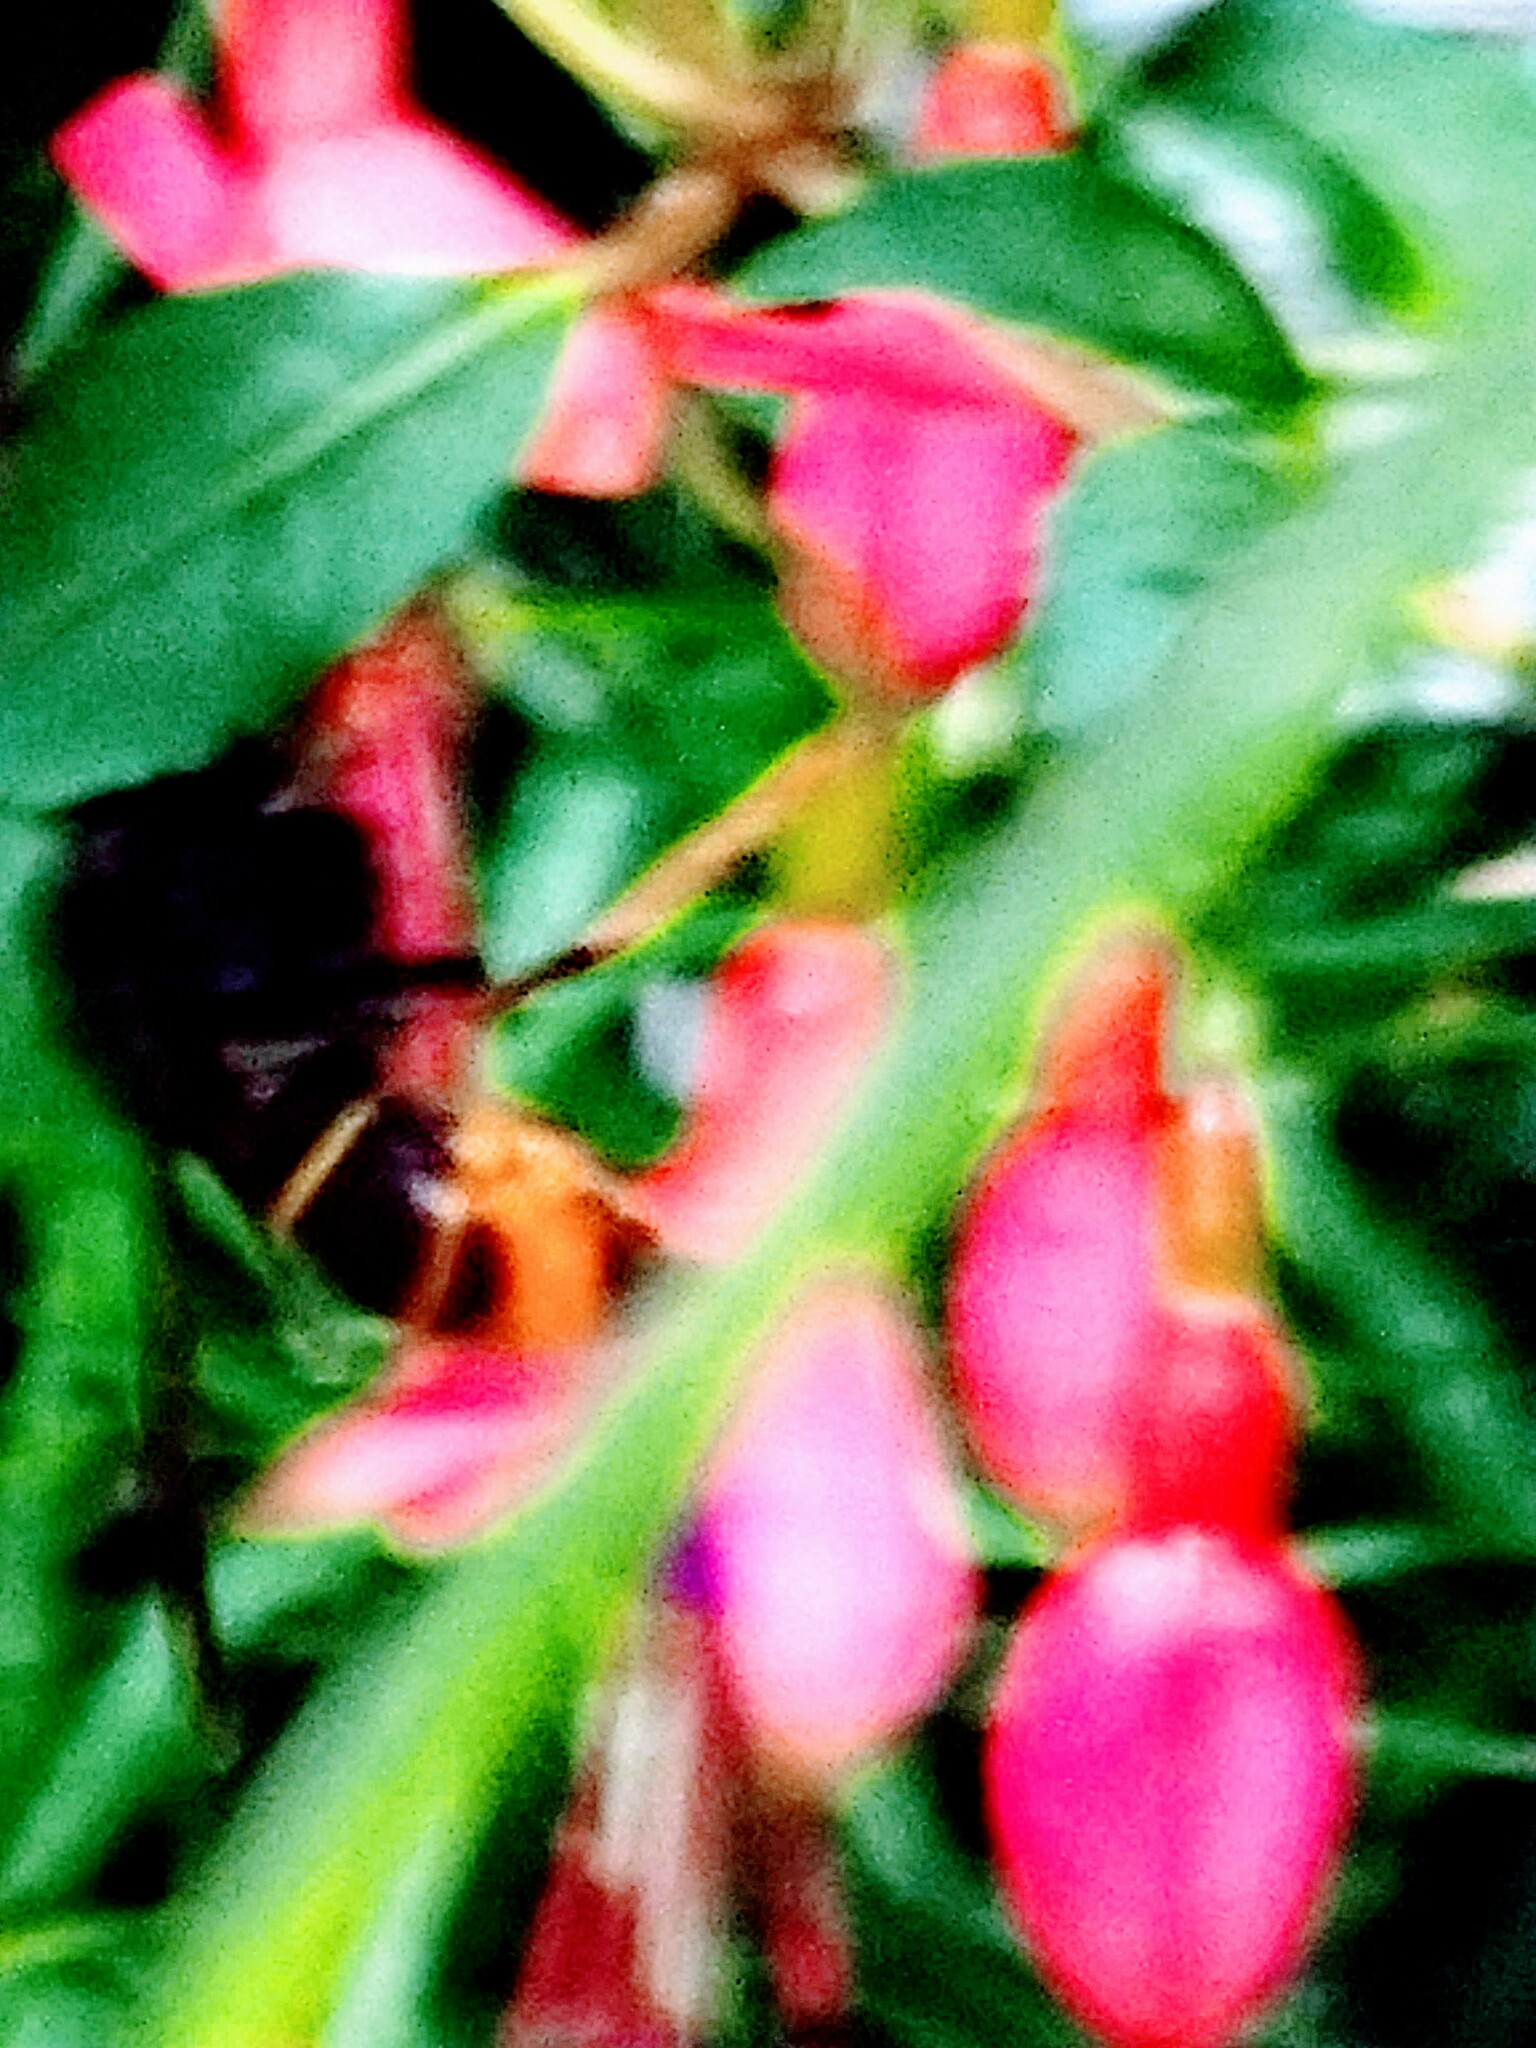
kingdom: Animalia
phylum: Arthropoda
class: Insecta
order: Hymenoptera
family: Vespidae
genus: Vespa
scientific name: Vespa velutina
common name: Asian hornet
